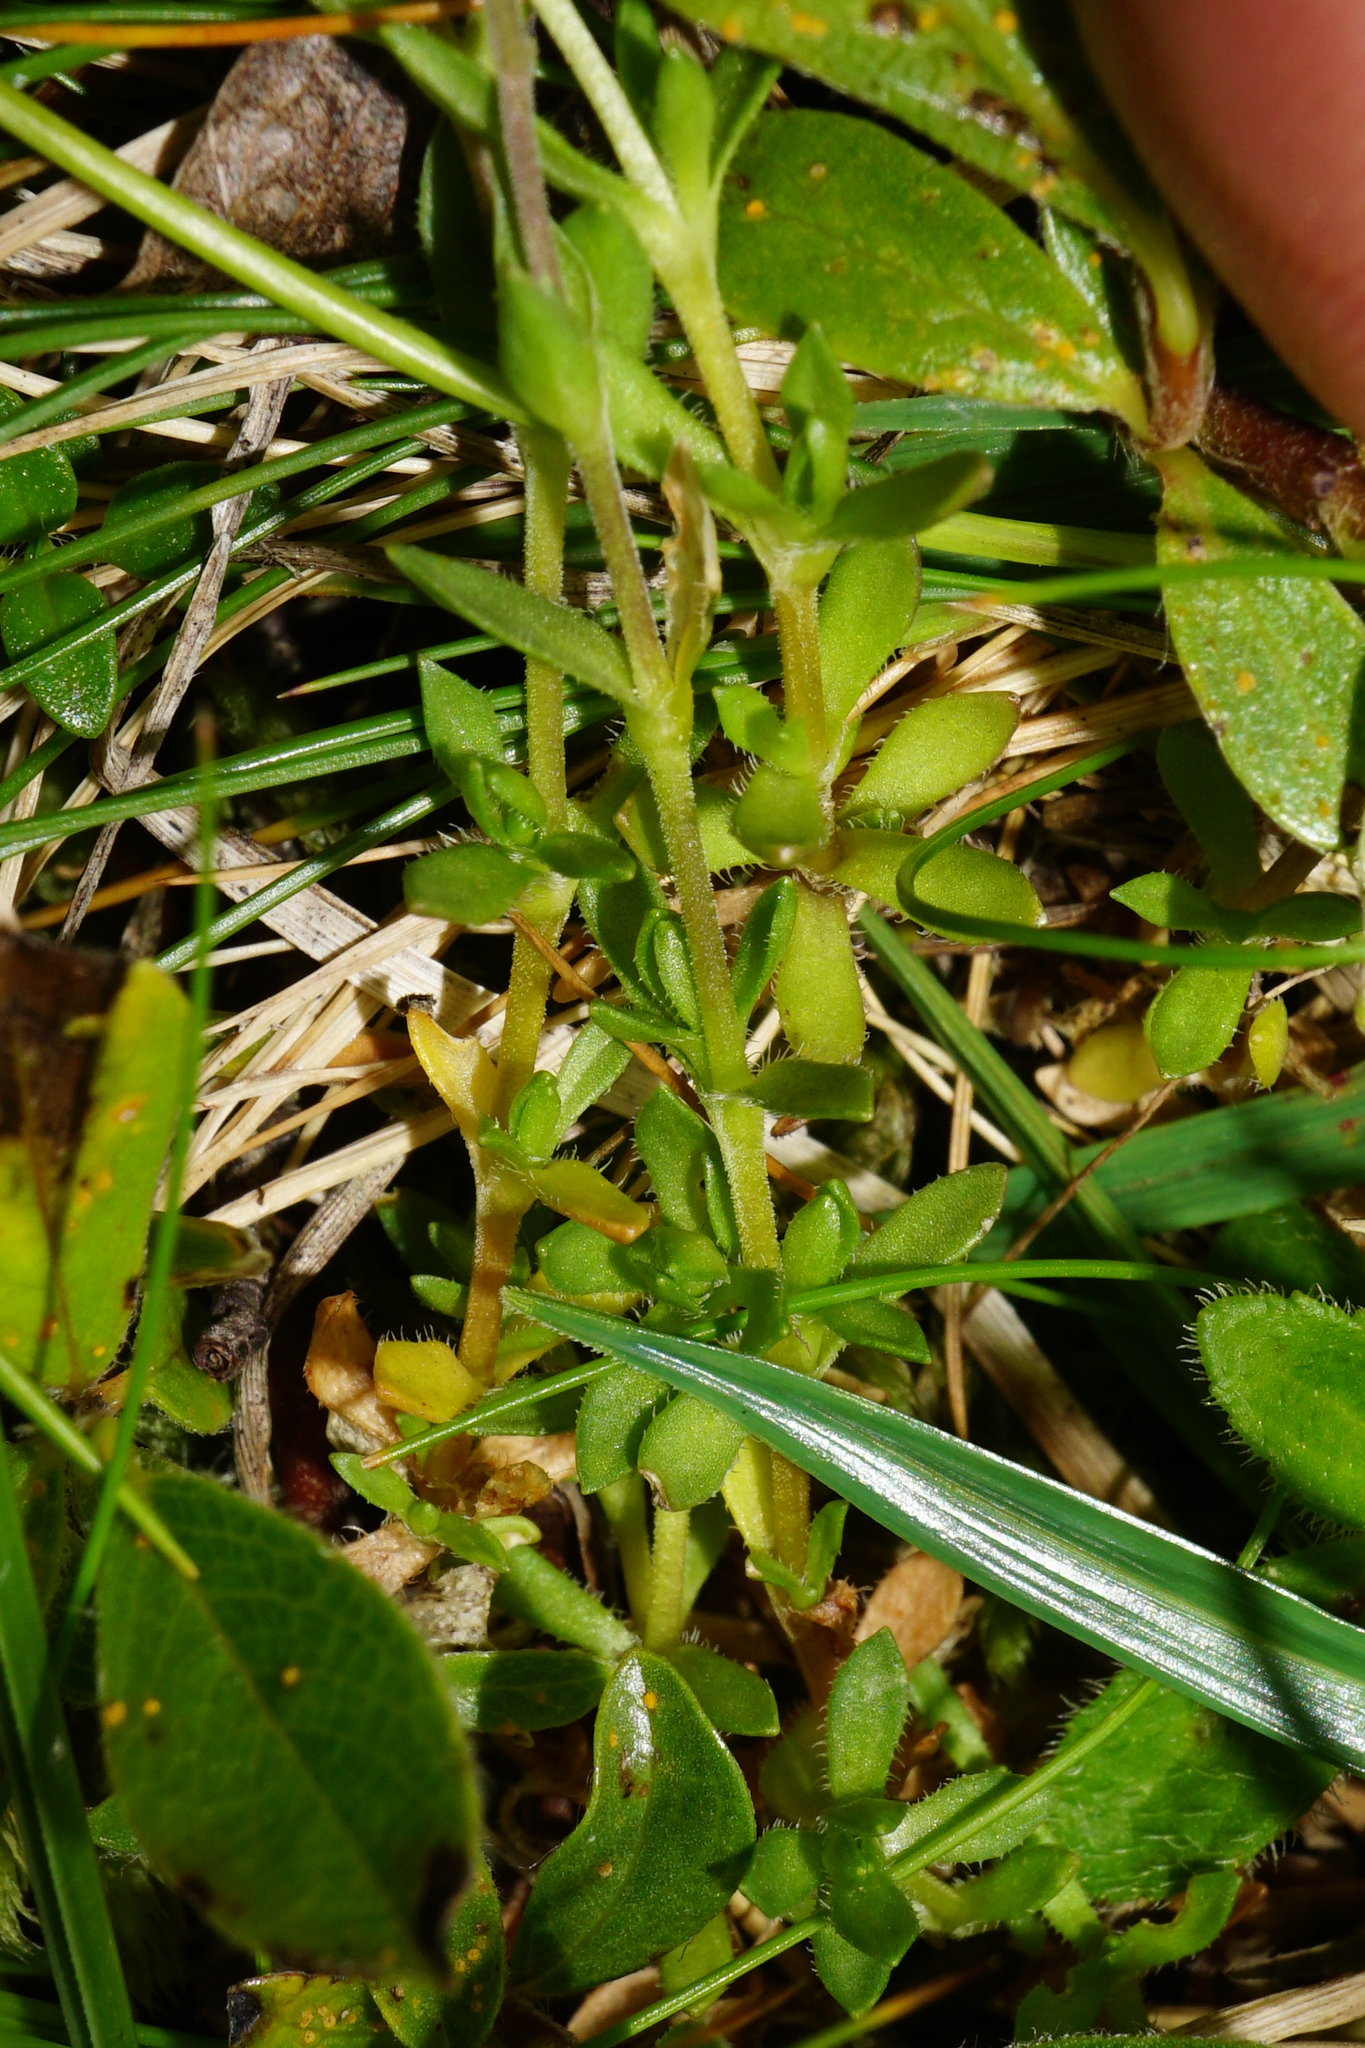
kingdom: Plantae
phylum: Tracheophyta
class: Magnoliopsida
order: Caryophyllales
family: Caryophyllaceae
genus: Arenaria
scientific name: Arenaria ciliata
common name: Fringed sandwort
